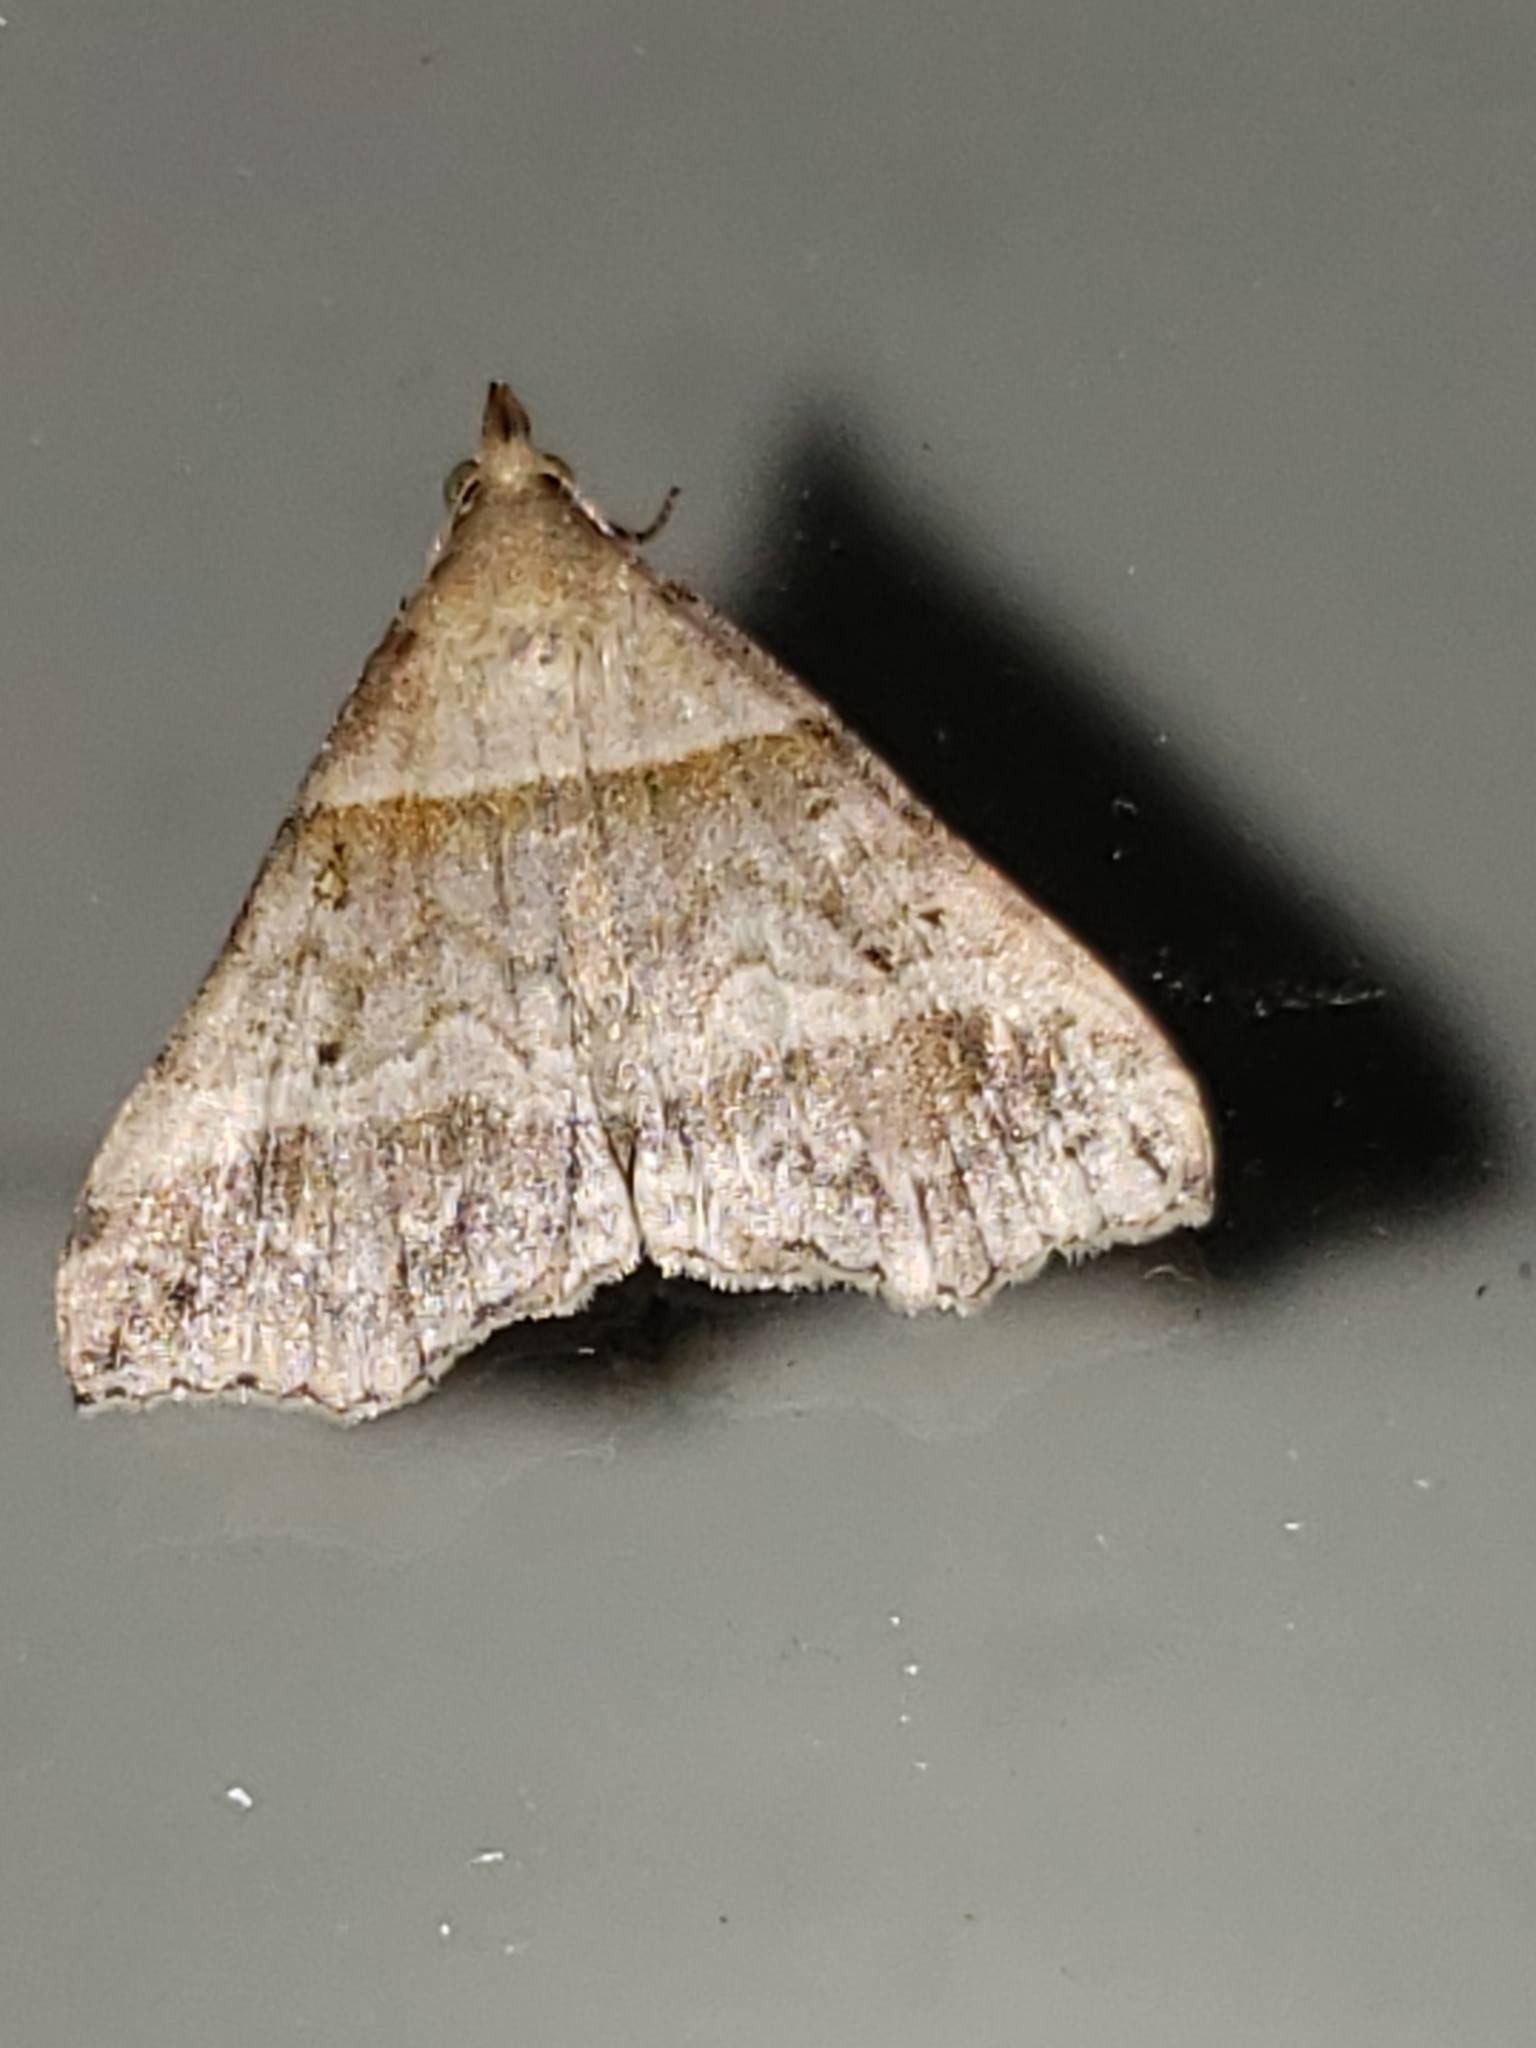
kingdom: Animalia
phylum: Arthropoda
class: Insecta
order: Lepidoptera
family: Erebidae
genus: Phaeolita
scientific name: Phaeolita pyramusalis
